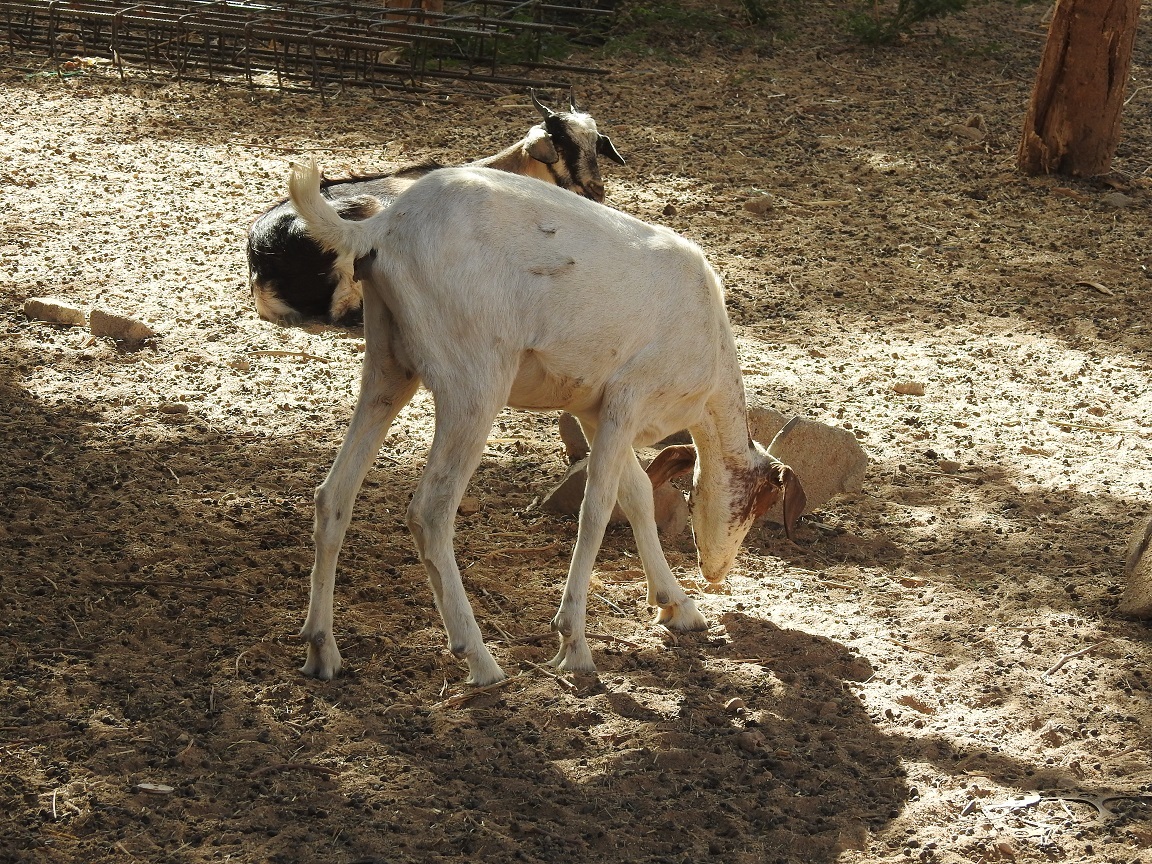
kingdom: Animalia
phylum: Chordata
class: Mammalia
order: Artiodactyla
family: Bovidae
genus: Capra
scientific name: Capra hircus
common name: Domestic goat
